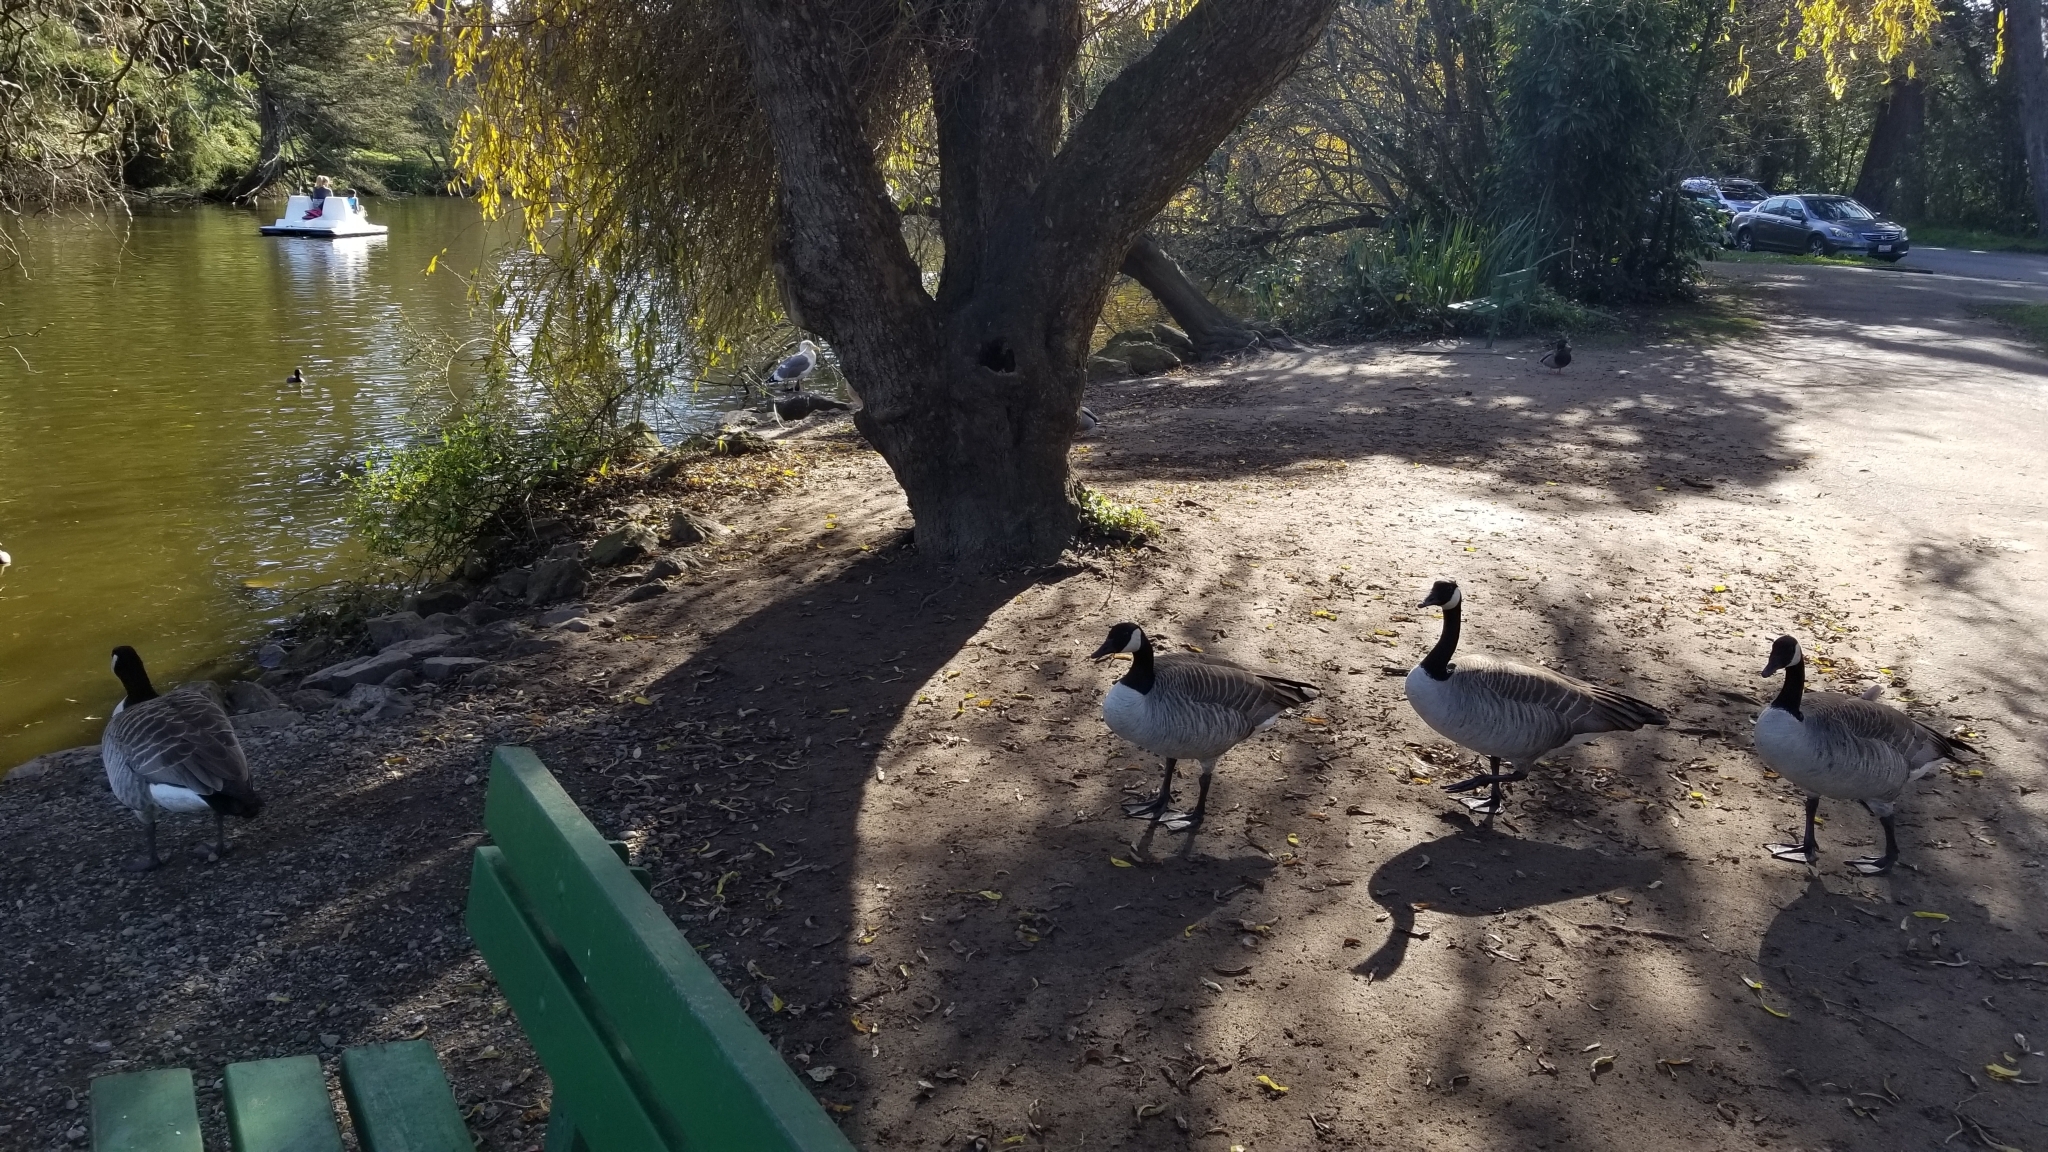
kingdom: Animalia
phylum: Chordata
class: Aves
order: Anseriformes
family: Anatidae
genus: Branta
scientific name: Branta canadensis
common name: Canada goose
